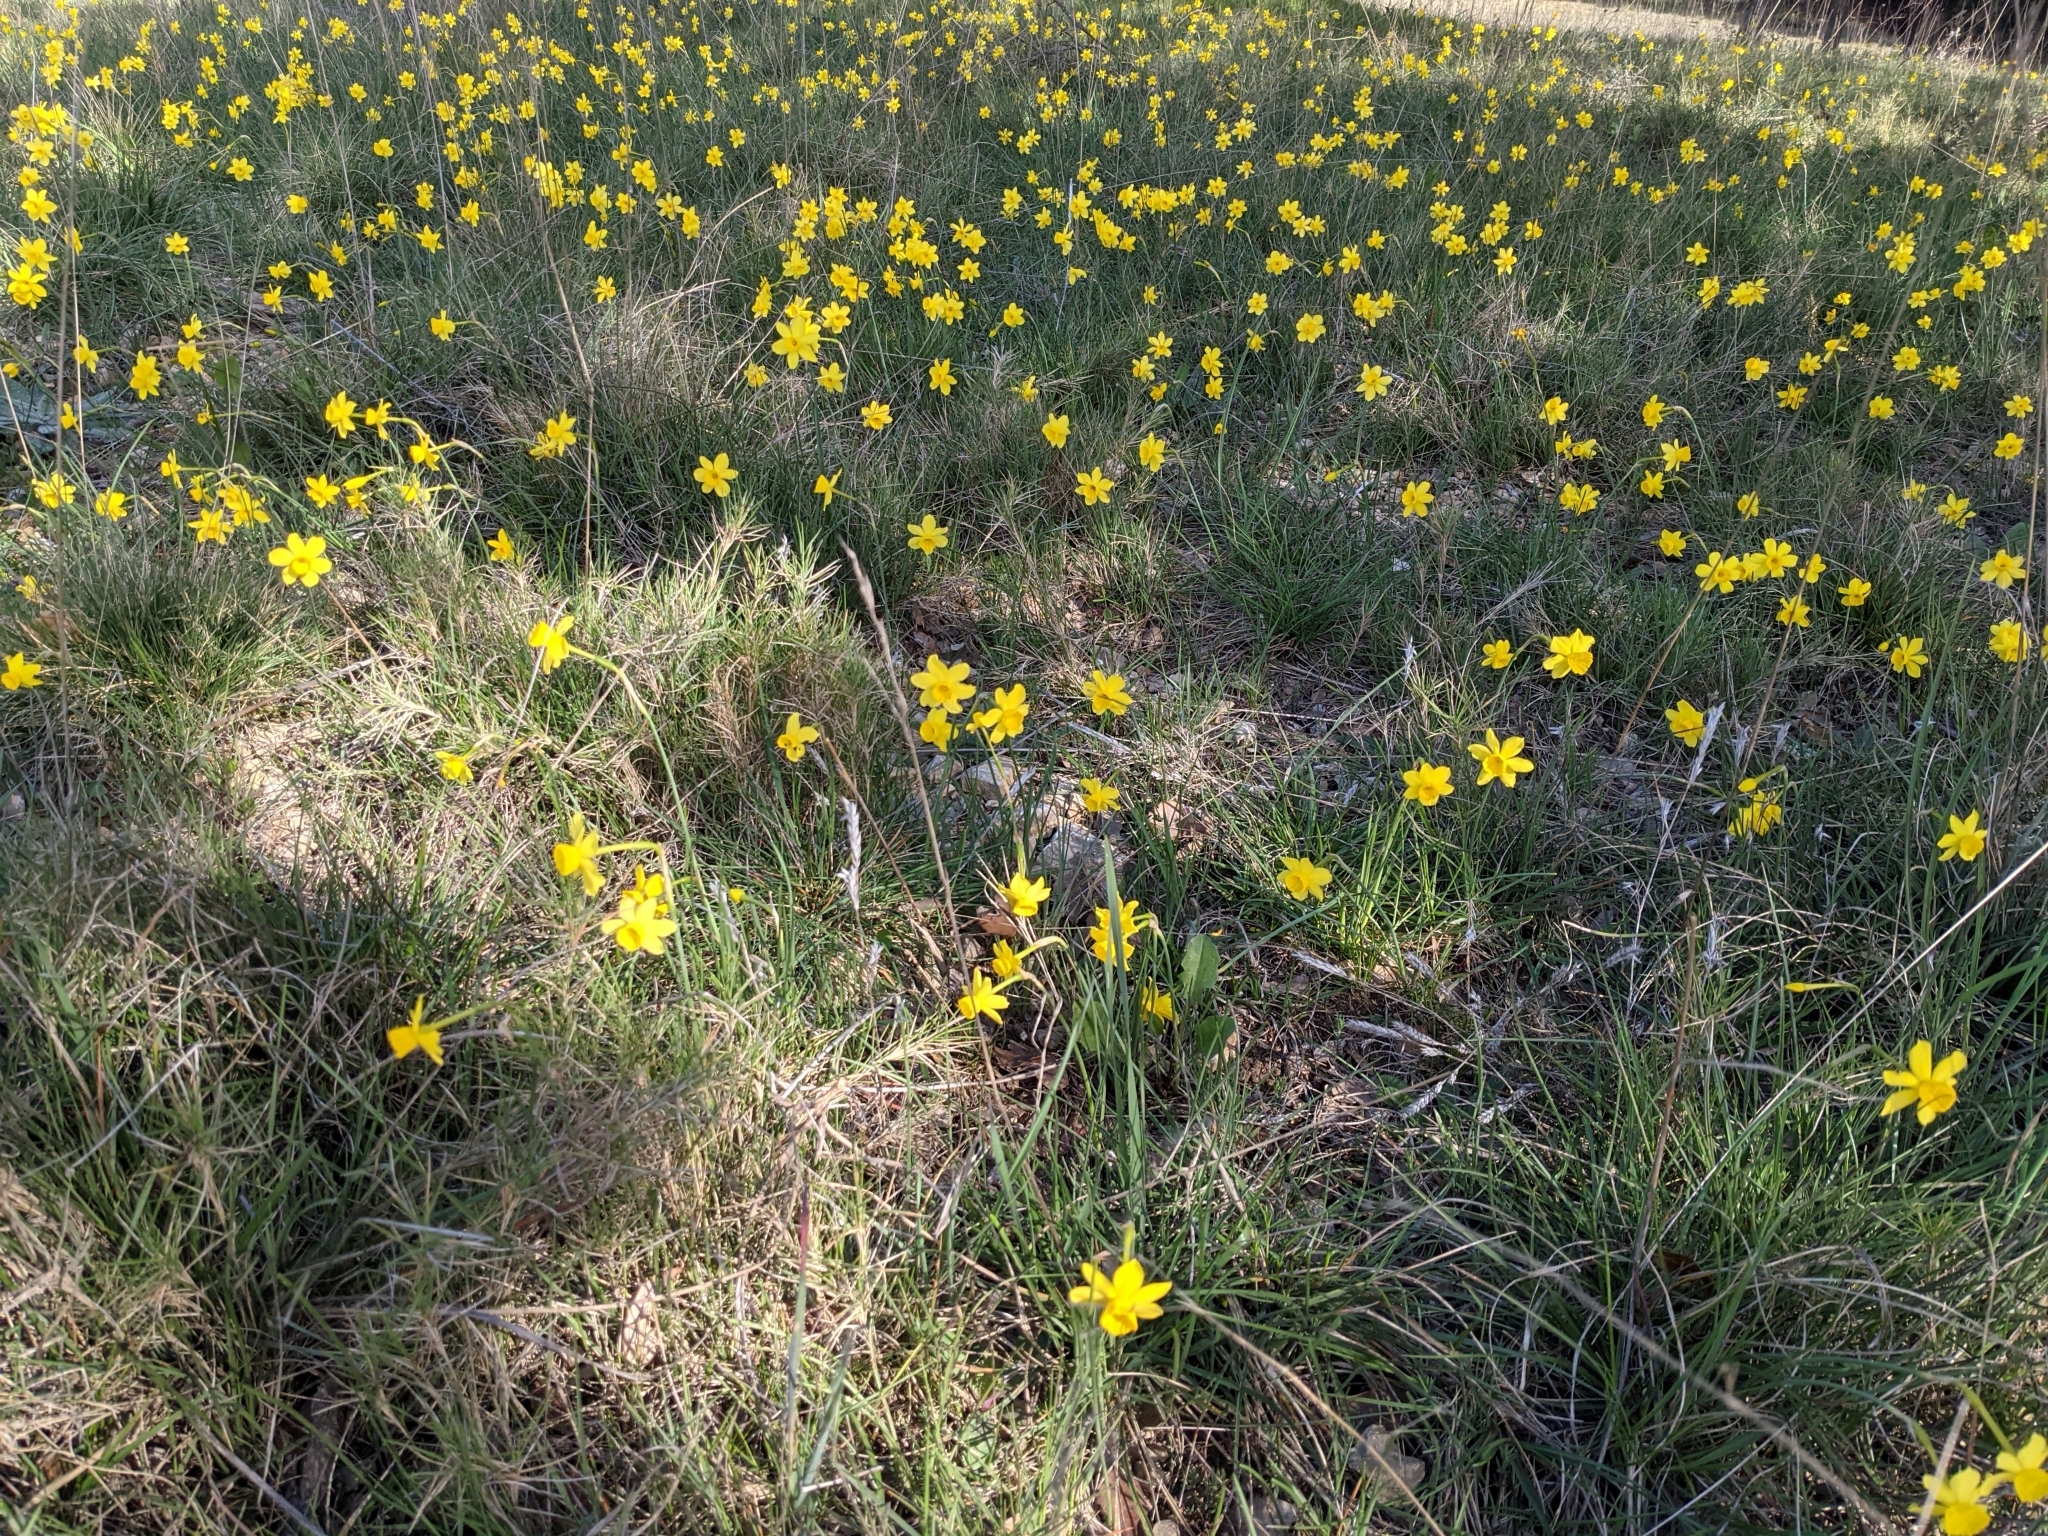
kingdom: Plantae
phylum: Tracheophyta
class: Liliopsida
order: Asparagales
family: Amaryllidaceae
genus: Narcissus
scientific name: Narcissus assoanus
